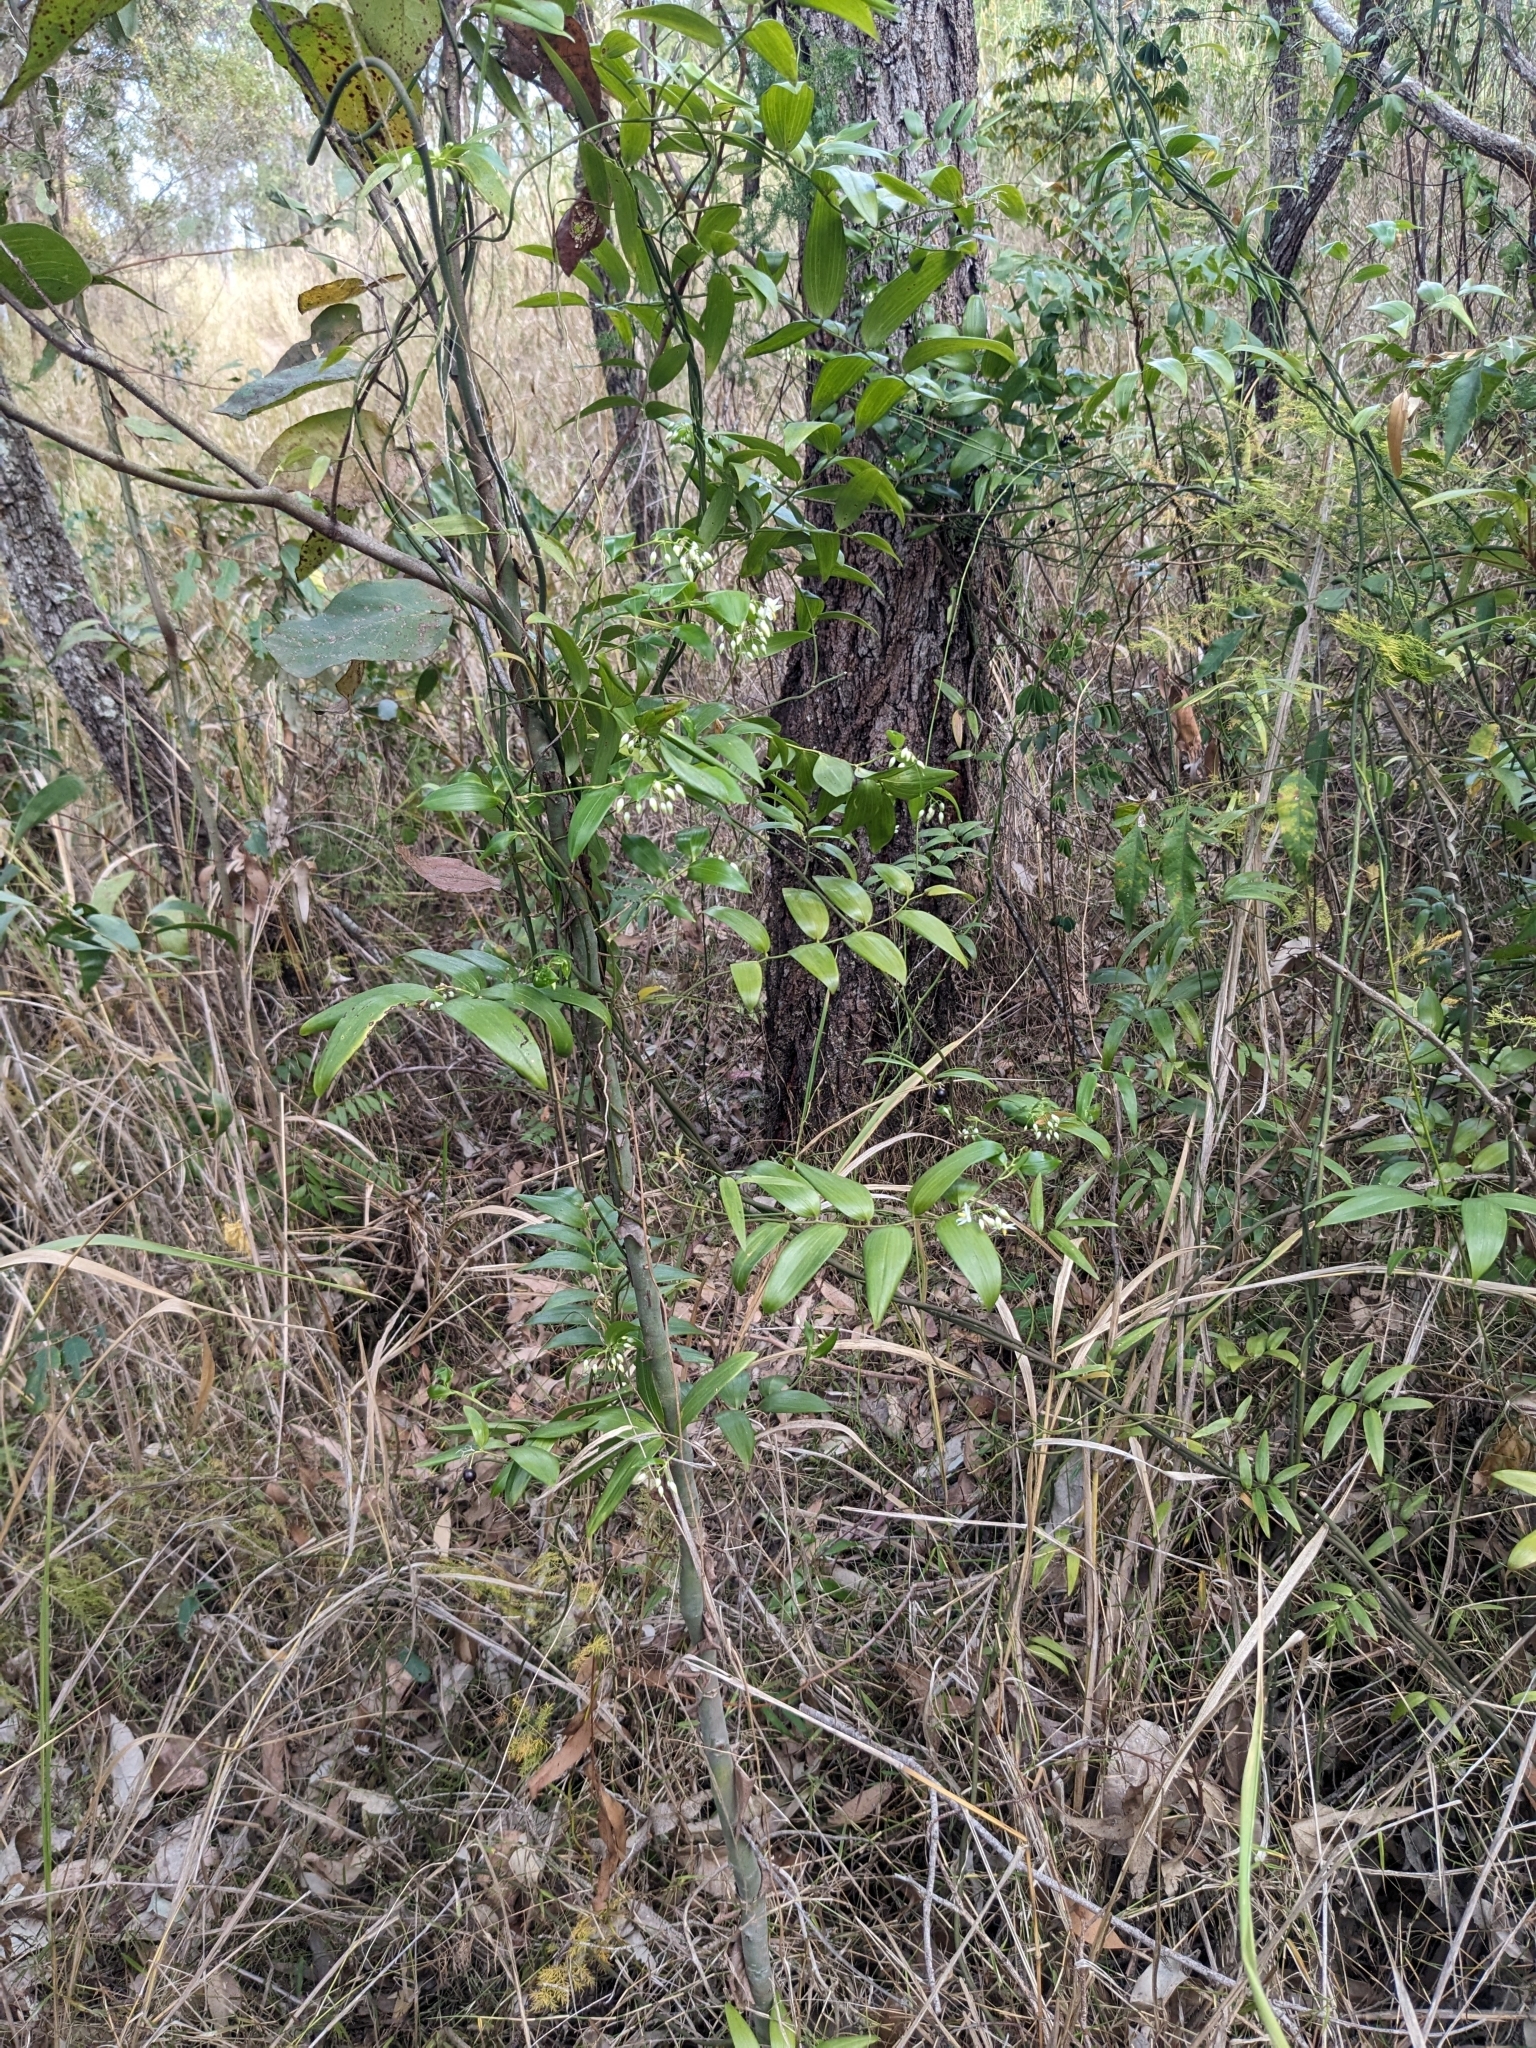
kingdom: Plantae
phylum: Tracheophyta
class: Liliopsida
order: Asparagales
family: Asphodelaceae
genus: Geitonoplesium
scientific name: Geitonoplesium cymosum
